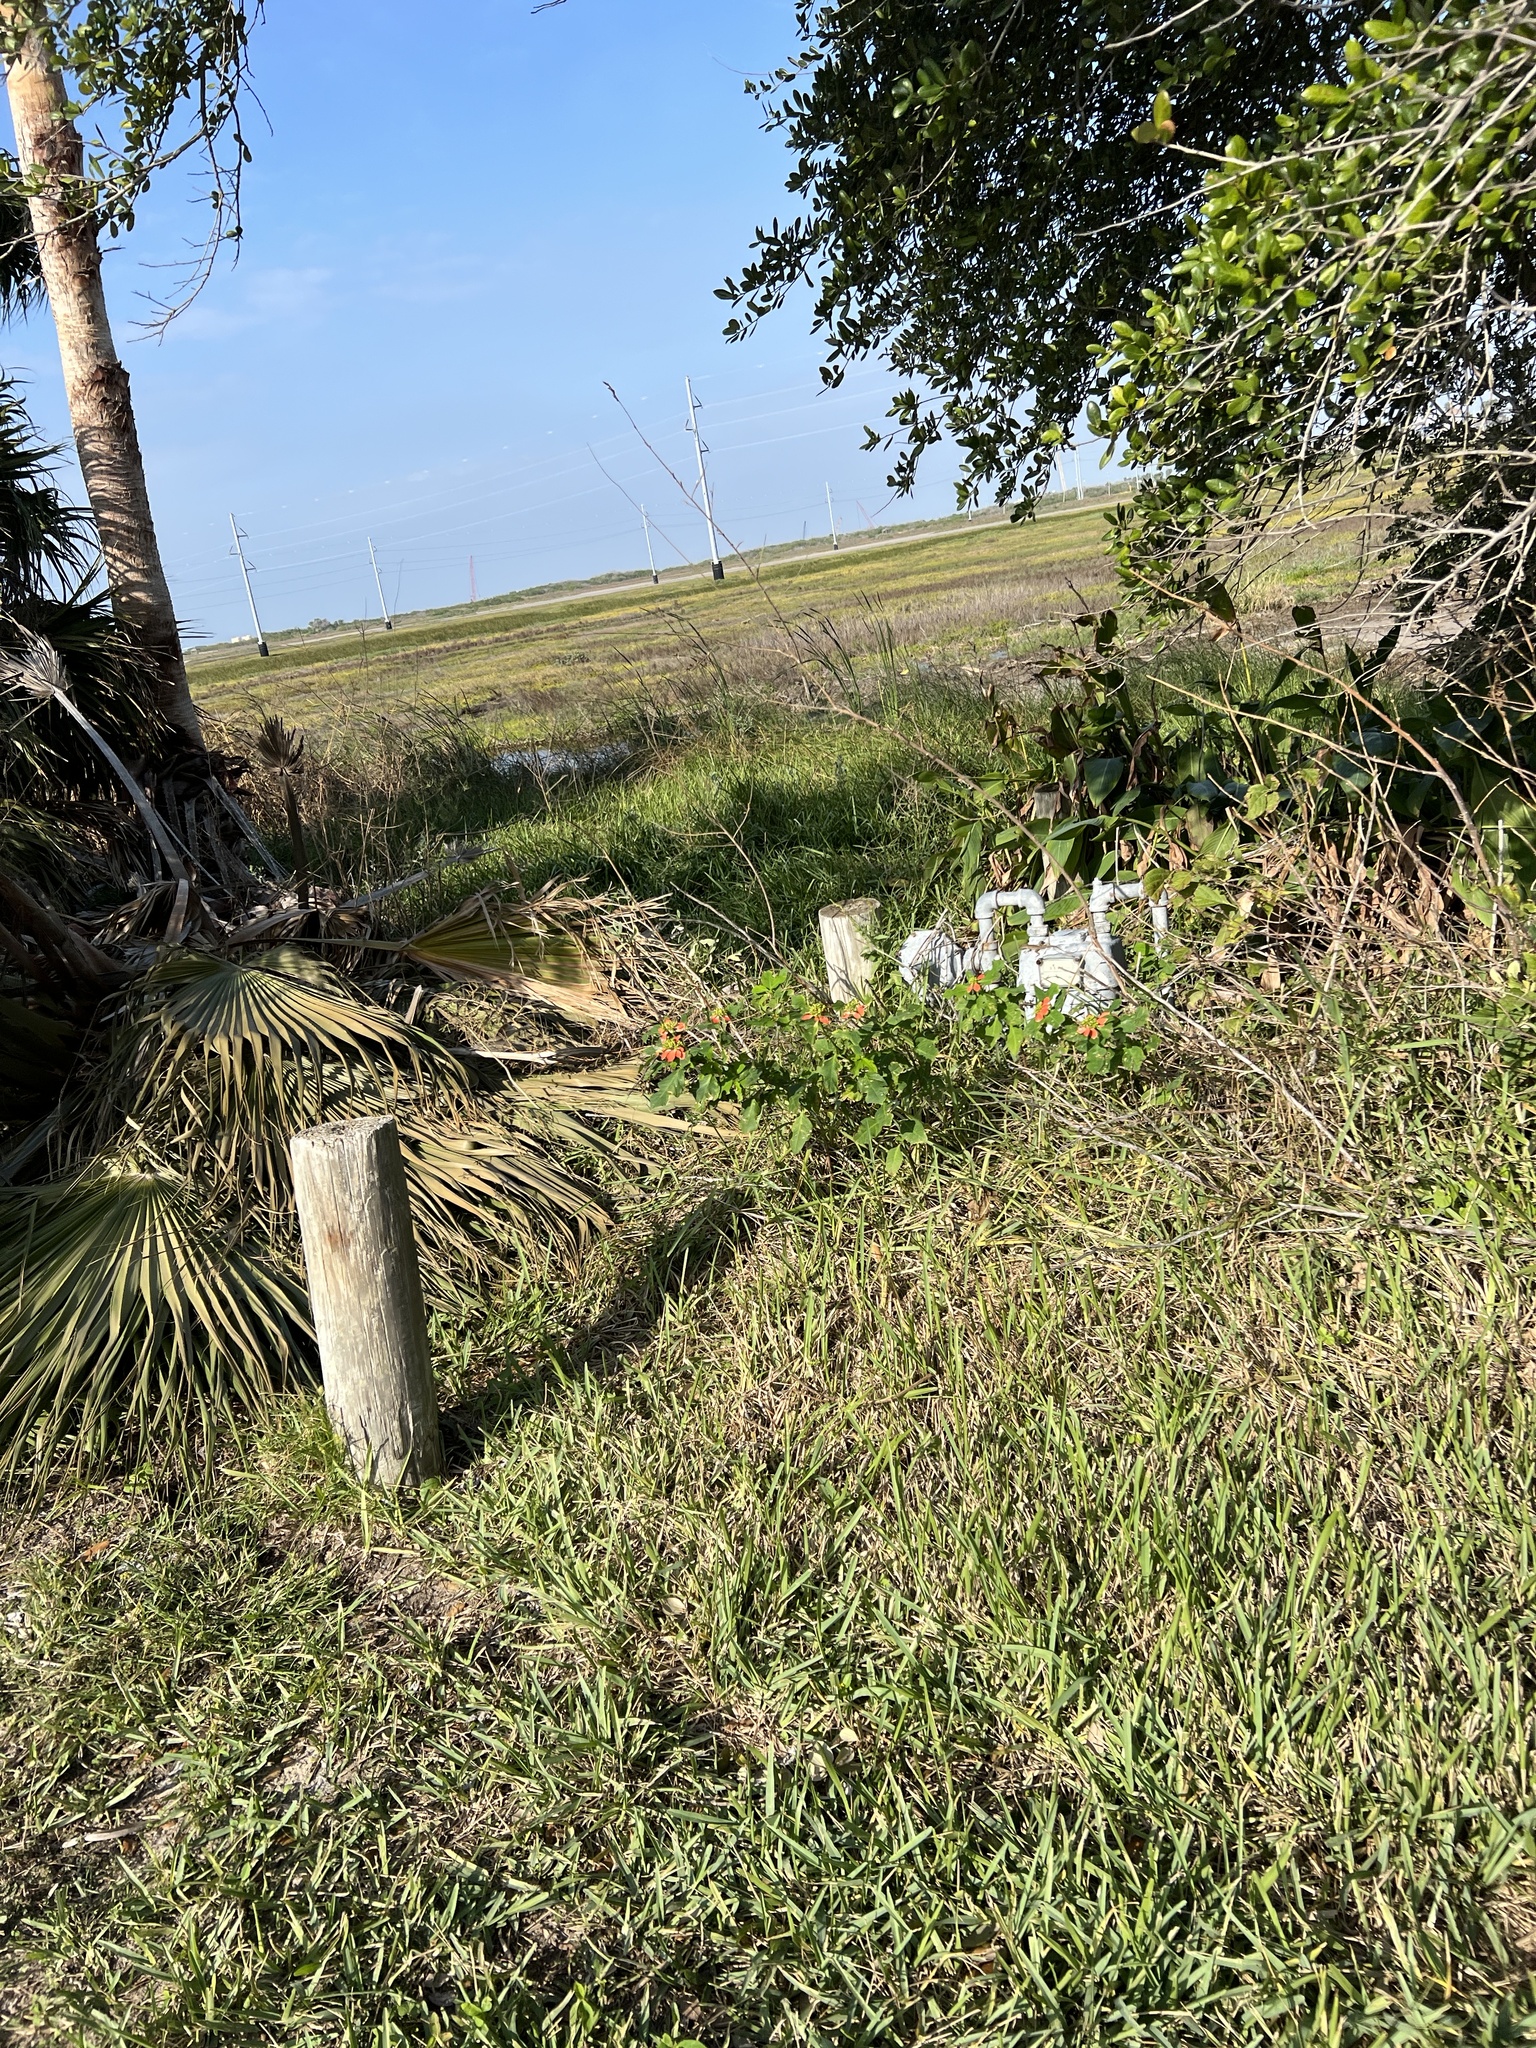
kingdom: Plantae
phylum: Tracheophyta
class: Magnoliopsida
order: Malpighiales
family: Euphorbiaceae
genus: Euphorbia
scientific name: Euphorbia heterophylla
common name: Mexican fireplant
